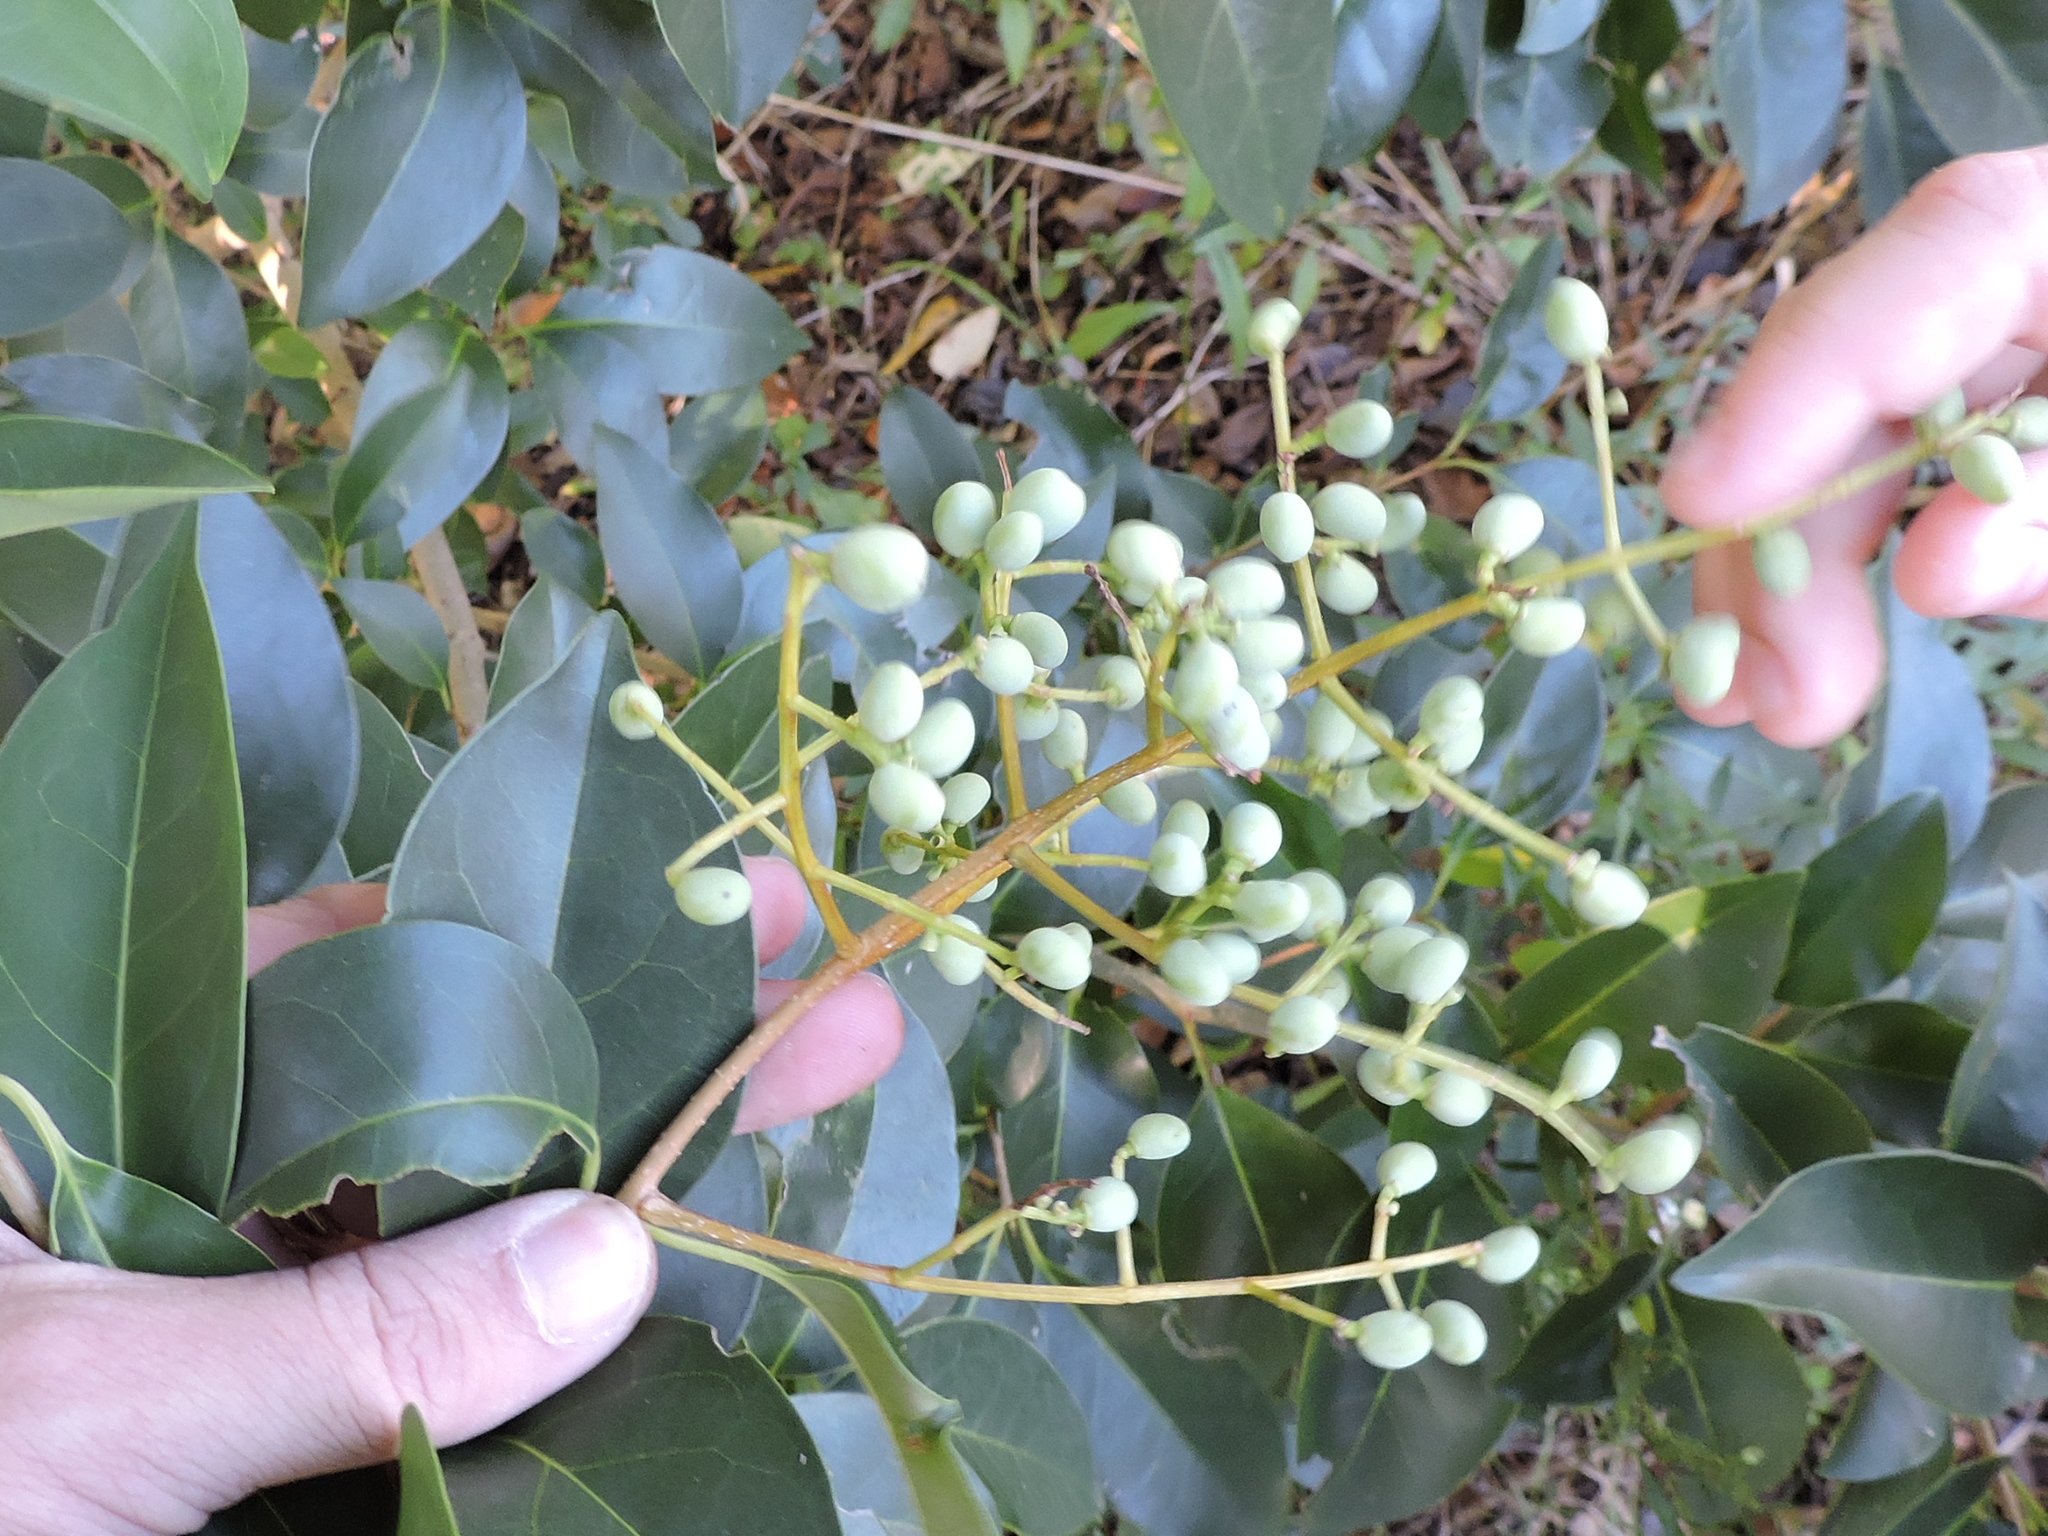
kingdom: Plantae
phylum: Tracheophyta
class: Magnoliopsida
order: Lamiales
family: Oleaceae
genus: Ligustrum
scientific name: Ligustrum lucidum
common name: Glossy privet
